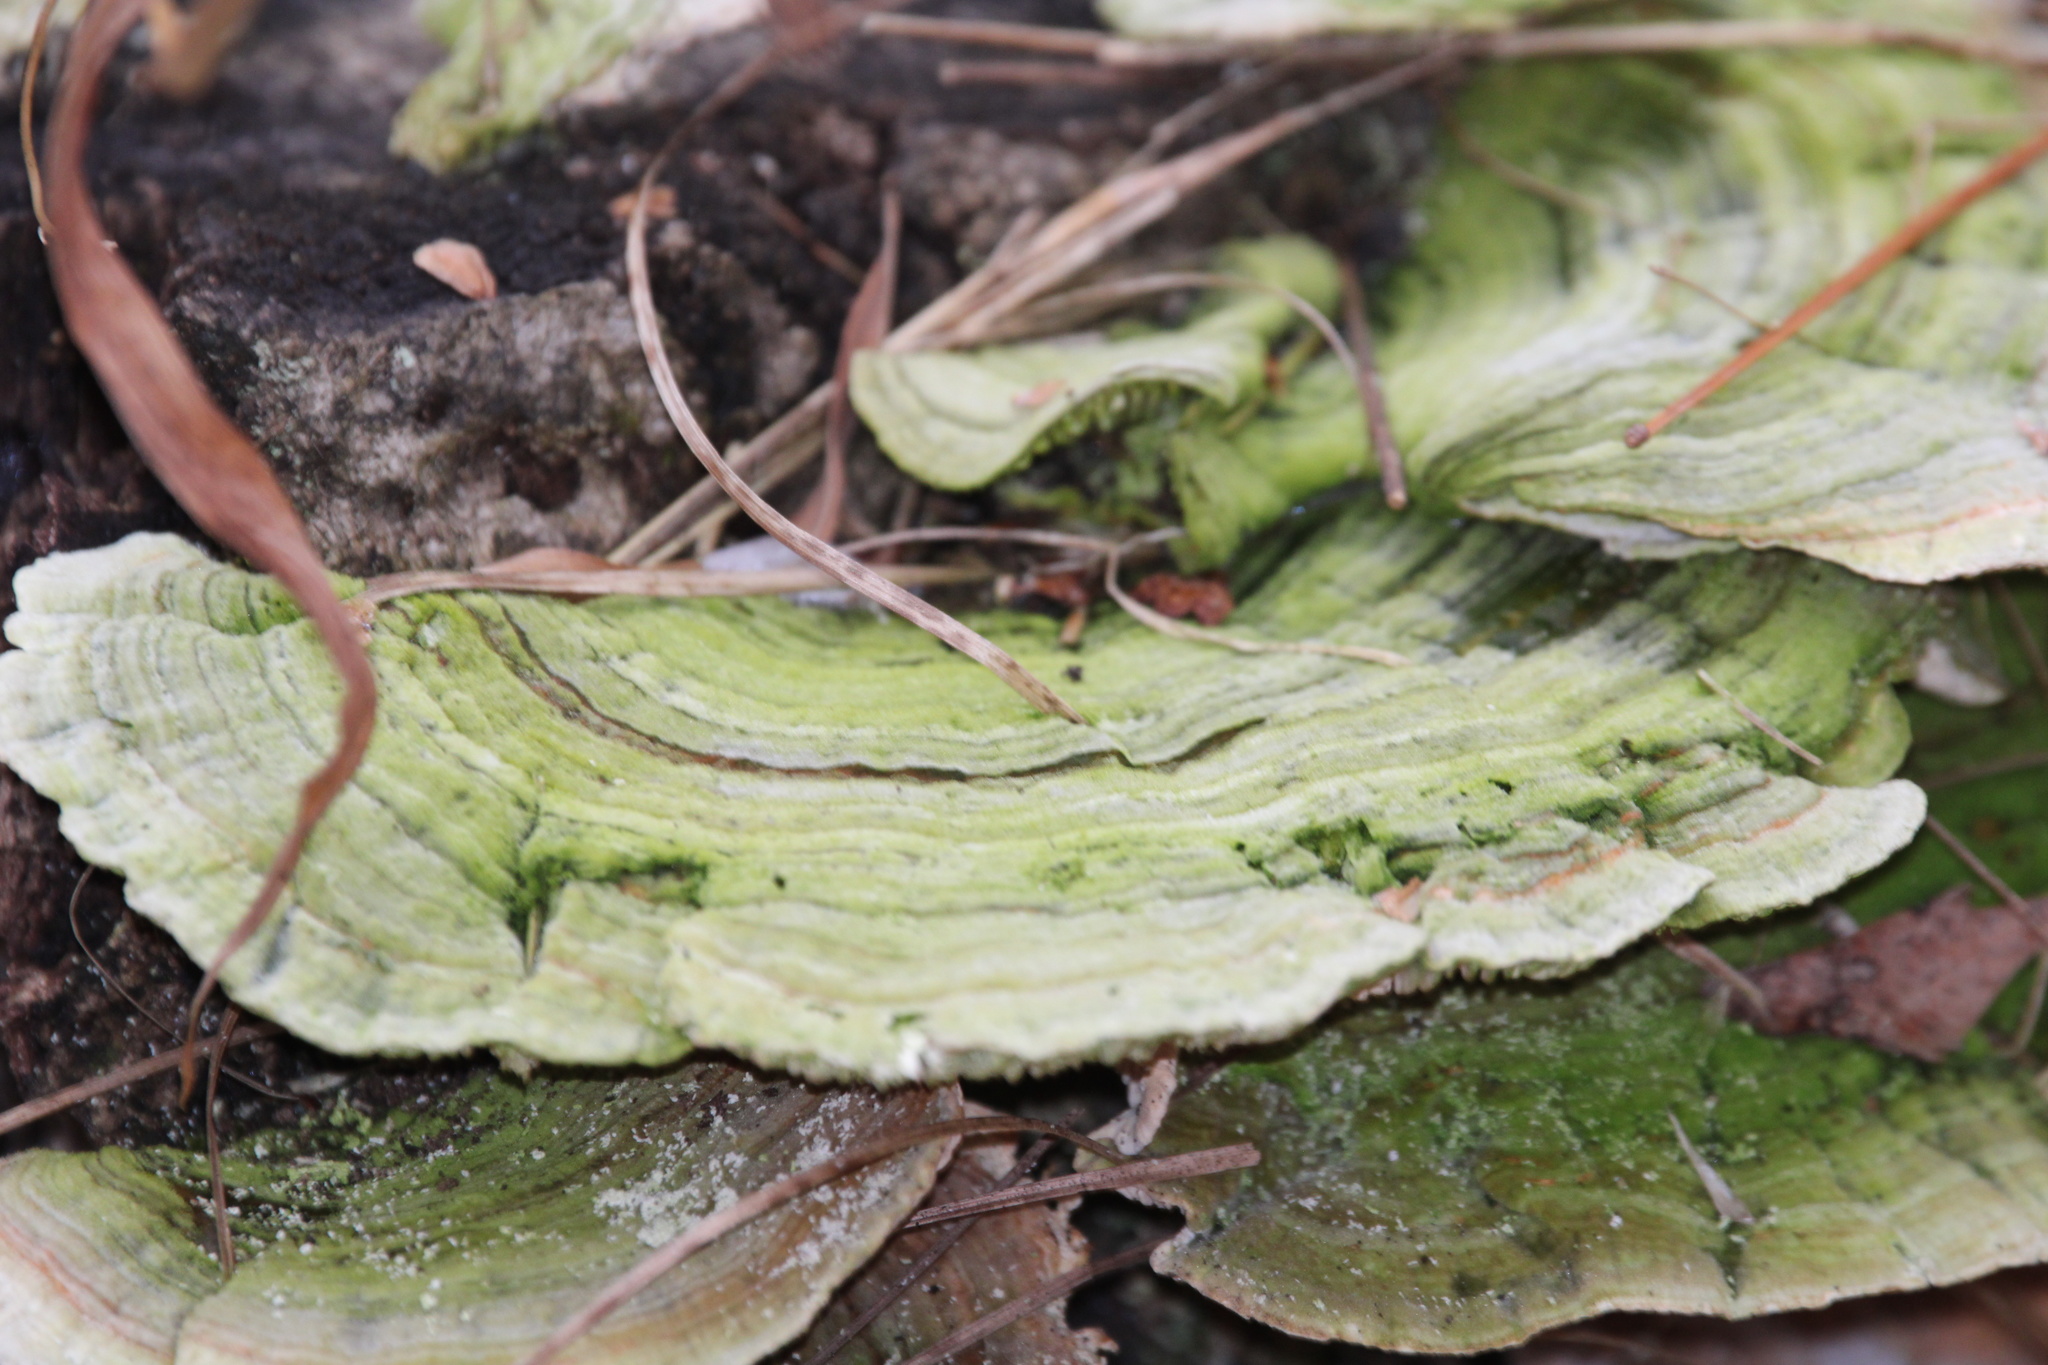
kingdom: Fungi
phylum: Basidiomycota
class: Agaricomycetes
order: Polyporales
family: Polyporaceae
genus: Lenzites
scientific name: Lenzites betulinus
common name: Birch mazegill
